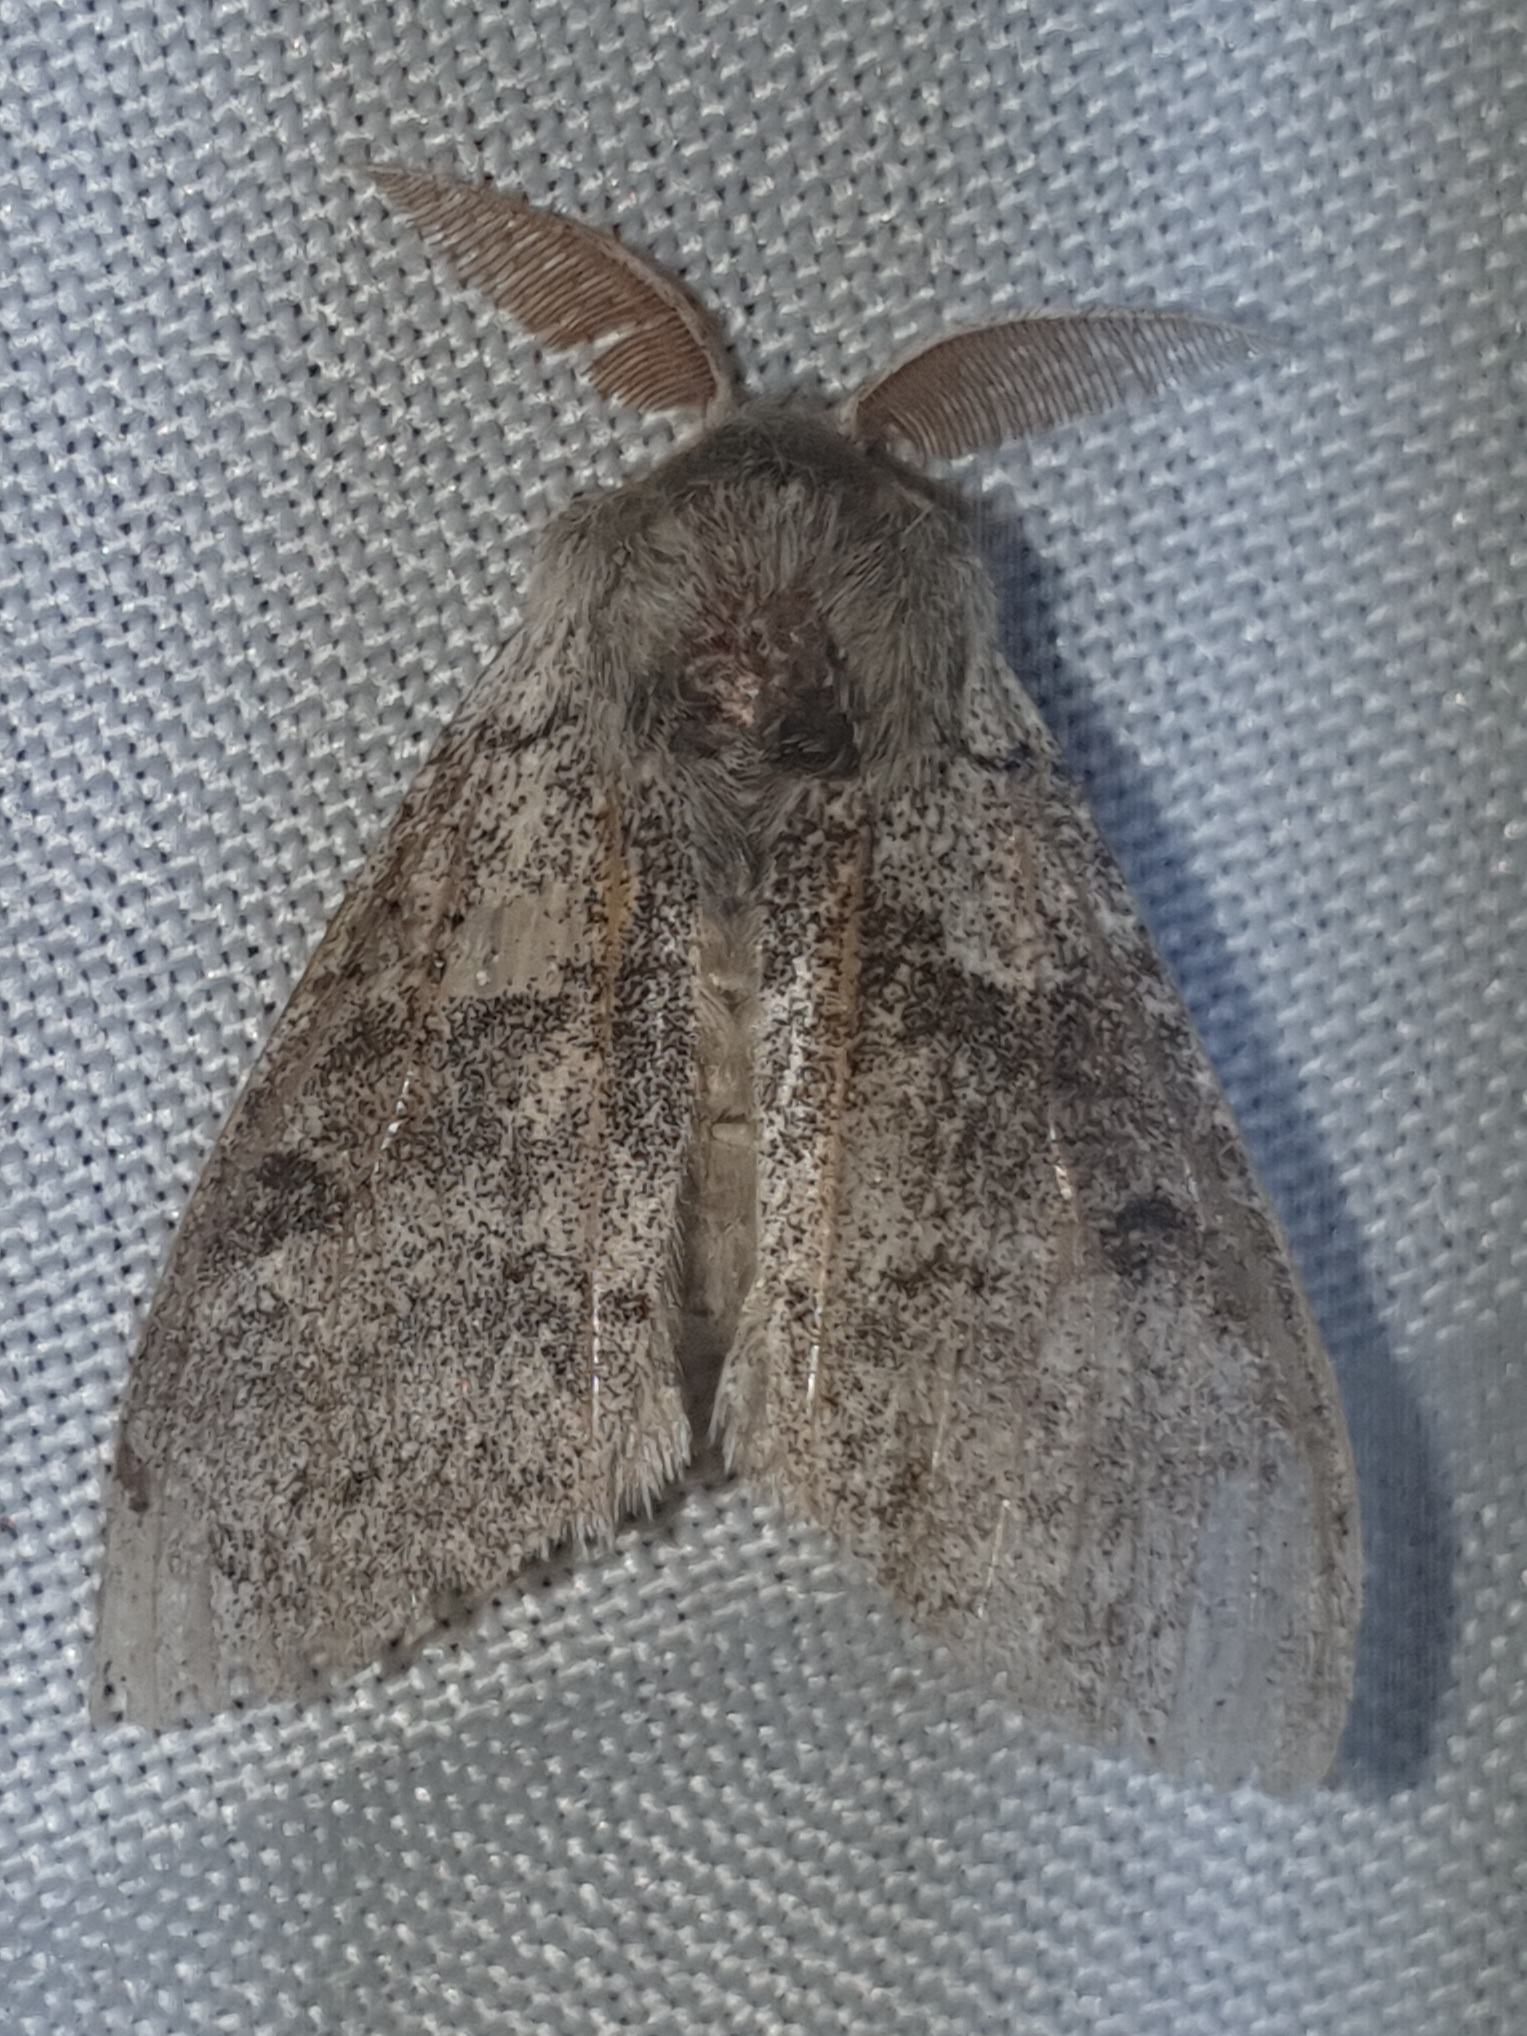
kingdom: Animalia
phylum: Arthropoda
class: Insecta
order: Lepidoptera
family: Erebidae
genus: Calliteara
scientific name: Calliteara pudibunda
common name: Pale tussock
